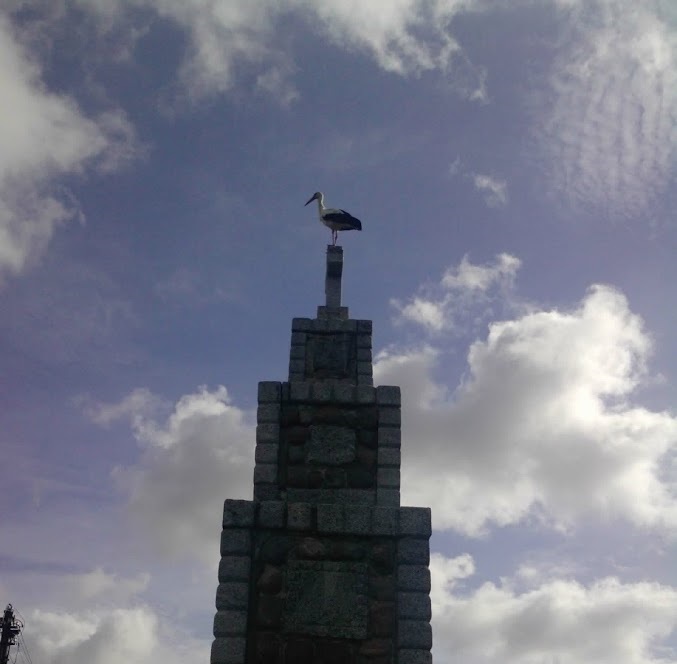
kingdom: Animalia
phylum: Chordata
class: Aves
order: Ciconiiformes
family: Ciconiidae
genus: Ciconia
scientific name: Ciconia ciconia
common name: White stork
